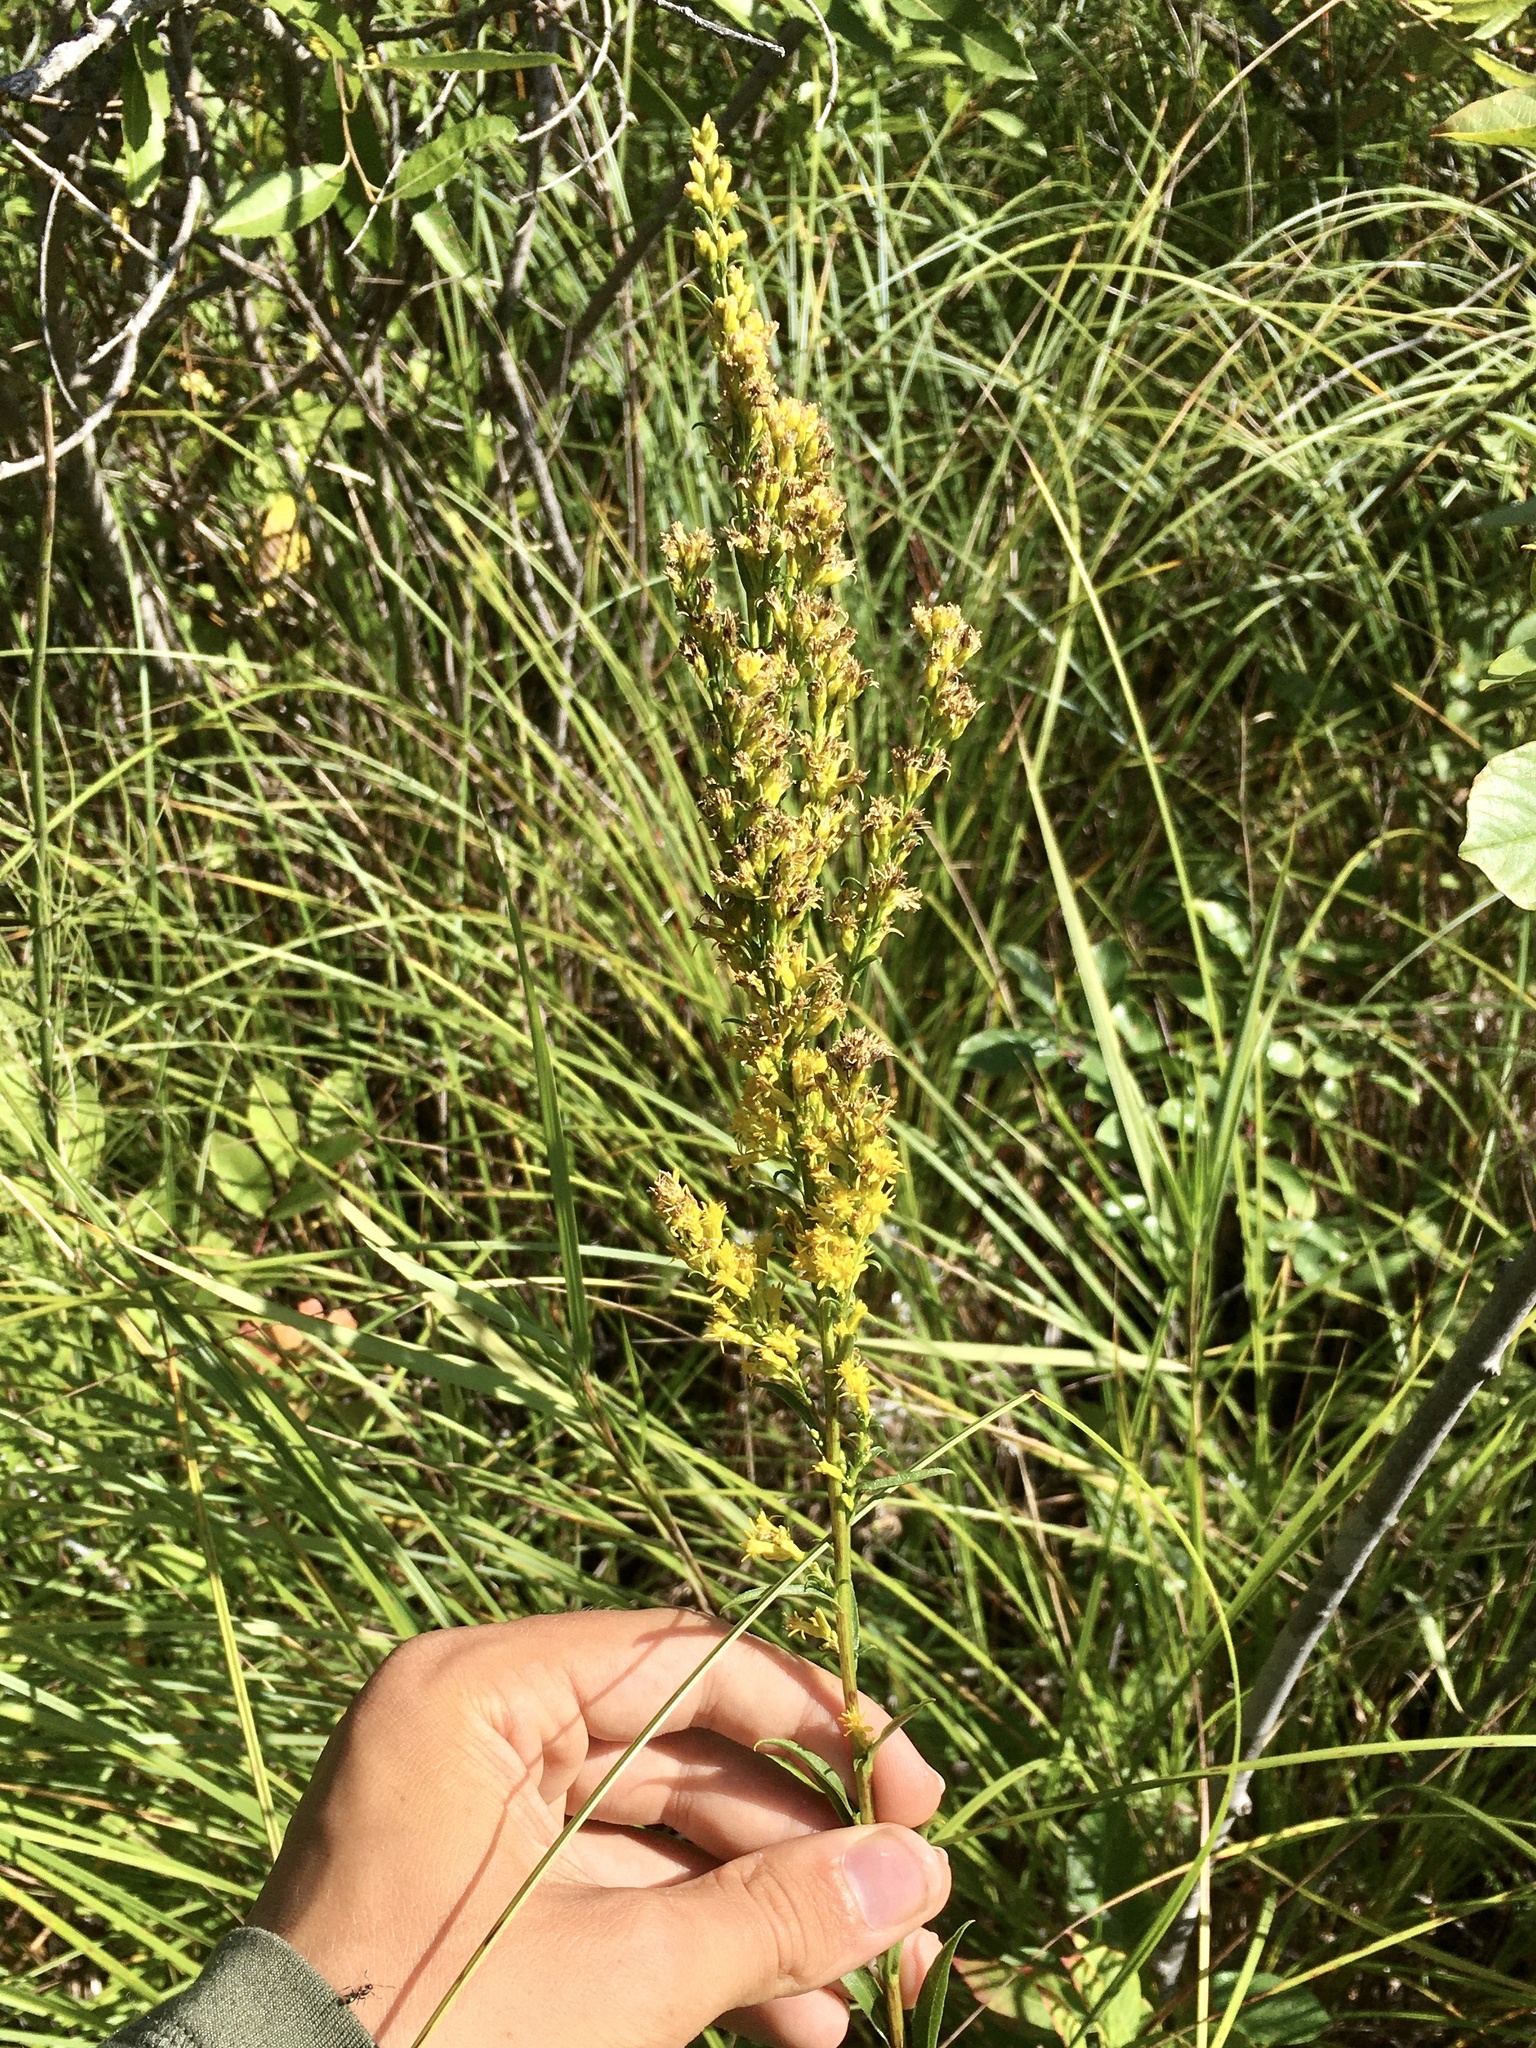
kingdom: Plantae
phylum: Tracheophyta
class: Magnoliopsida
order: Asterales
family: Asteraceae
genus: Solidago
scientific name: Solidago uliginosa
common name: Bog goldenrod
